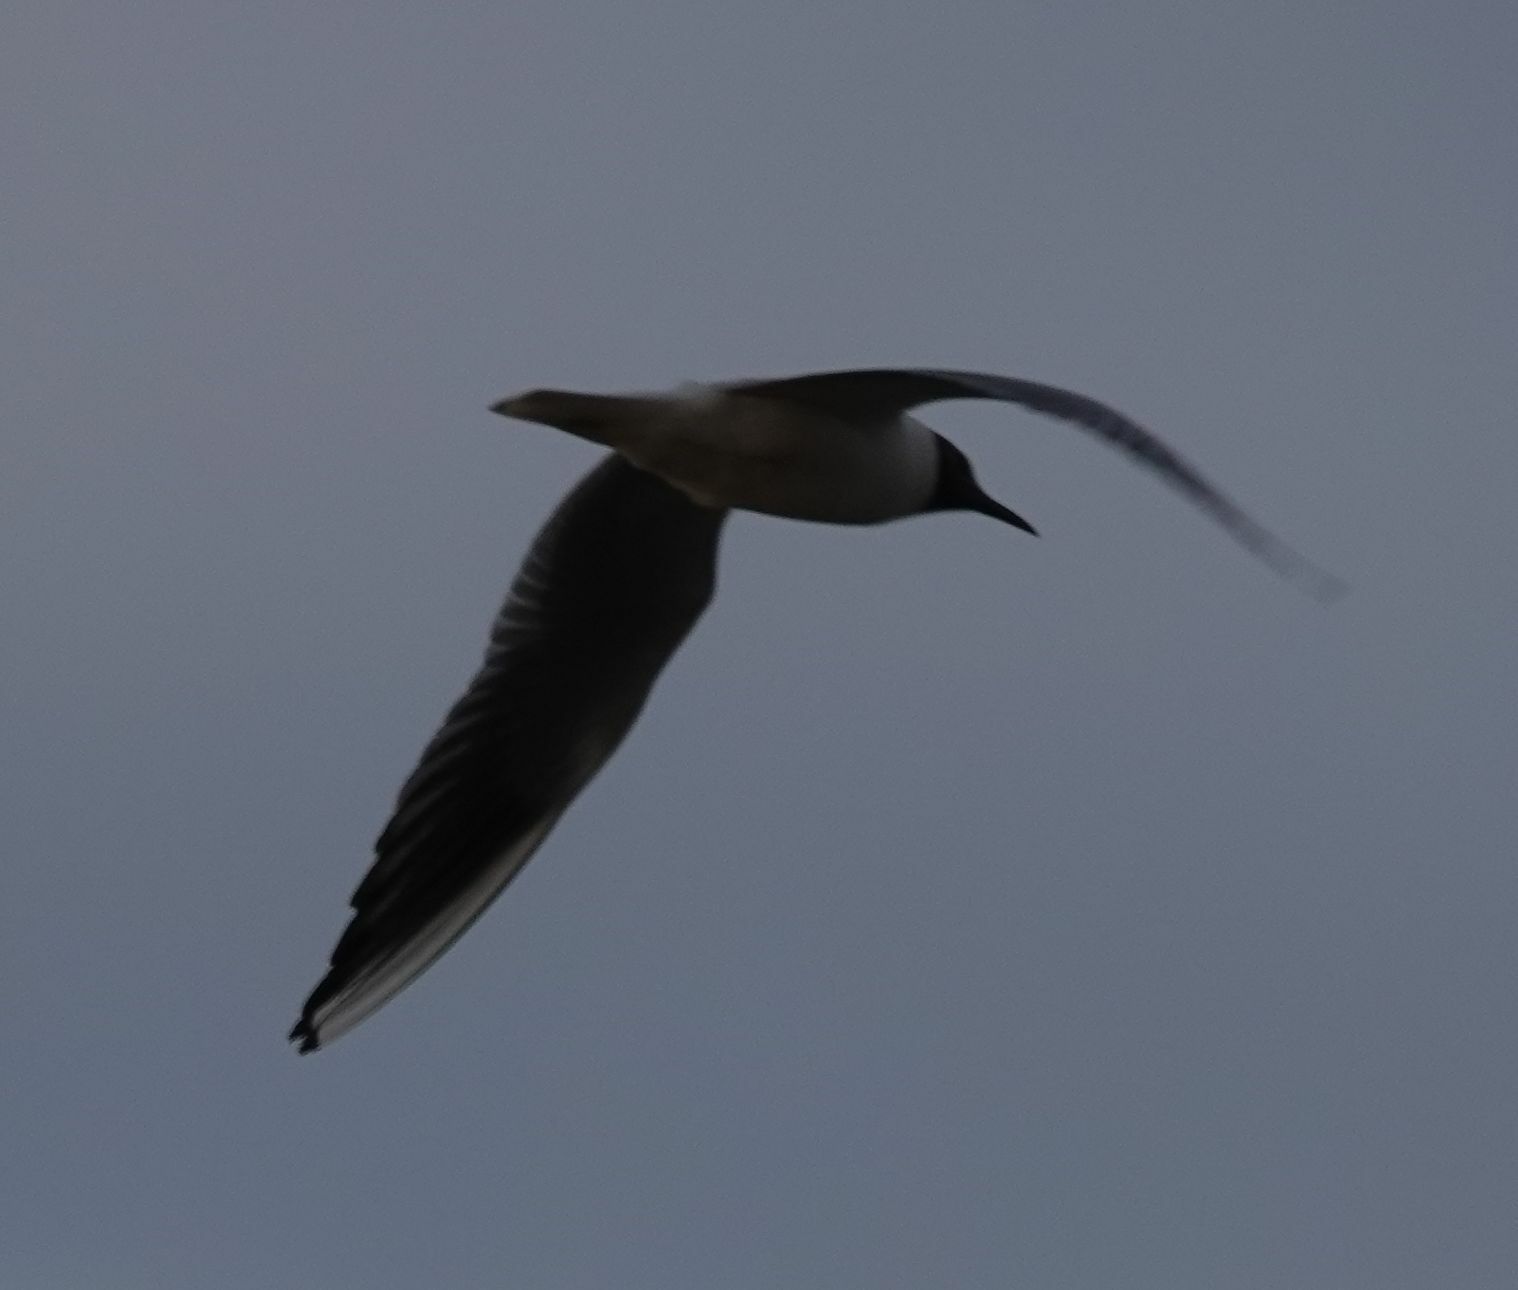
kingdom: Animalia
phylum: Chordata
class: Aves
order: Charadriiformes
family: Laridae
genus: Chroicocephalus
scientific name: Chroicocephalus ridibundus
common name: Black-headed gull
